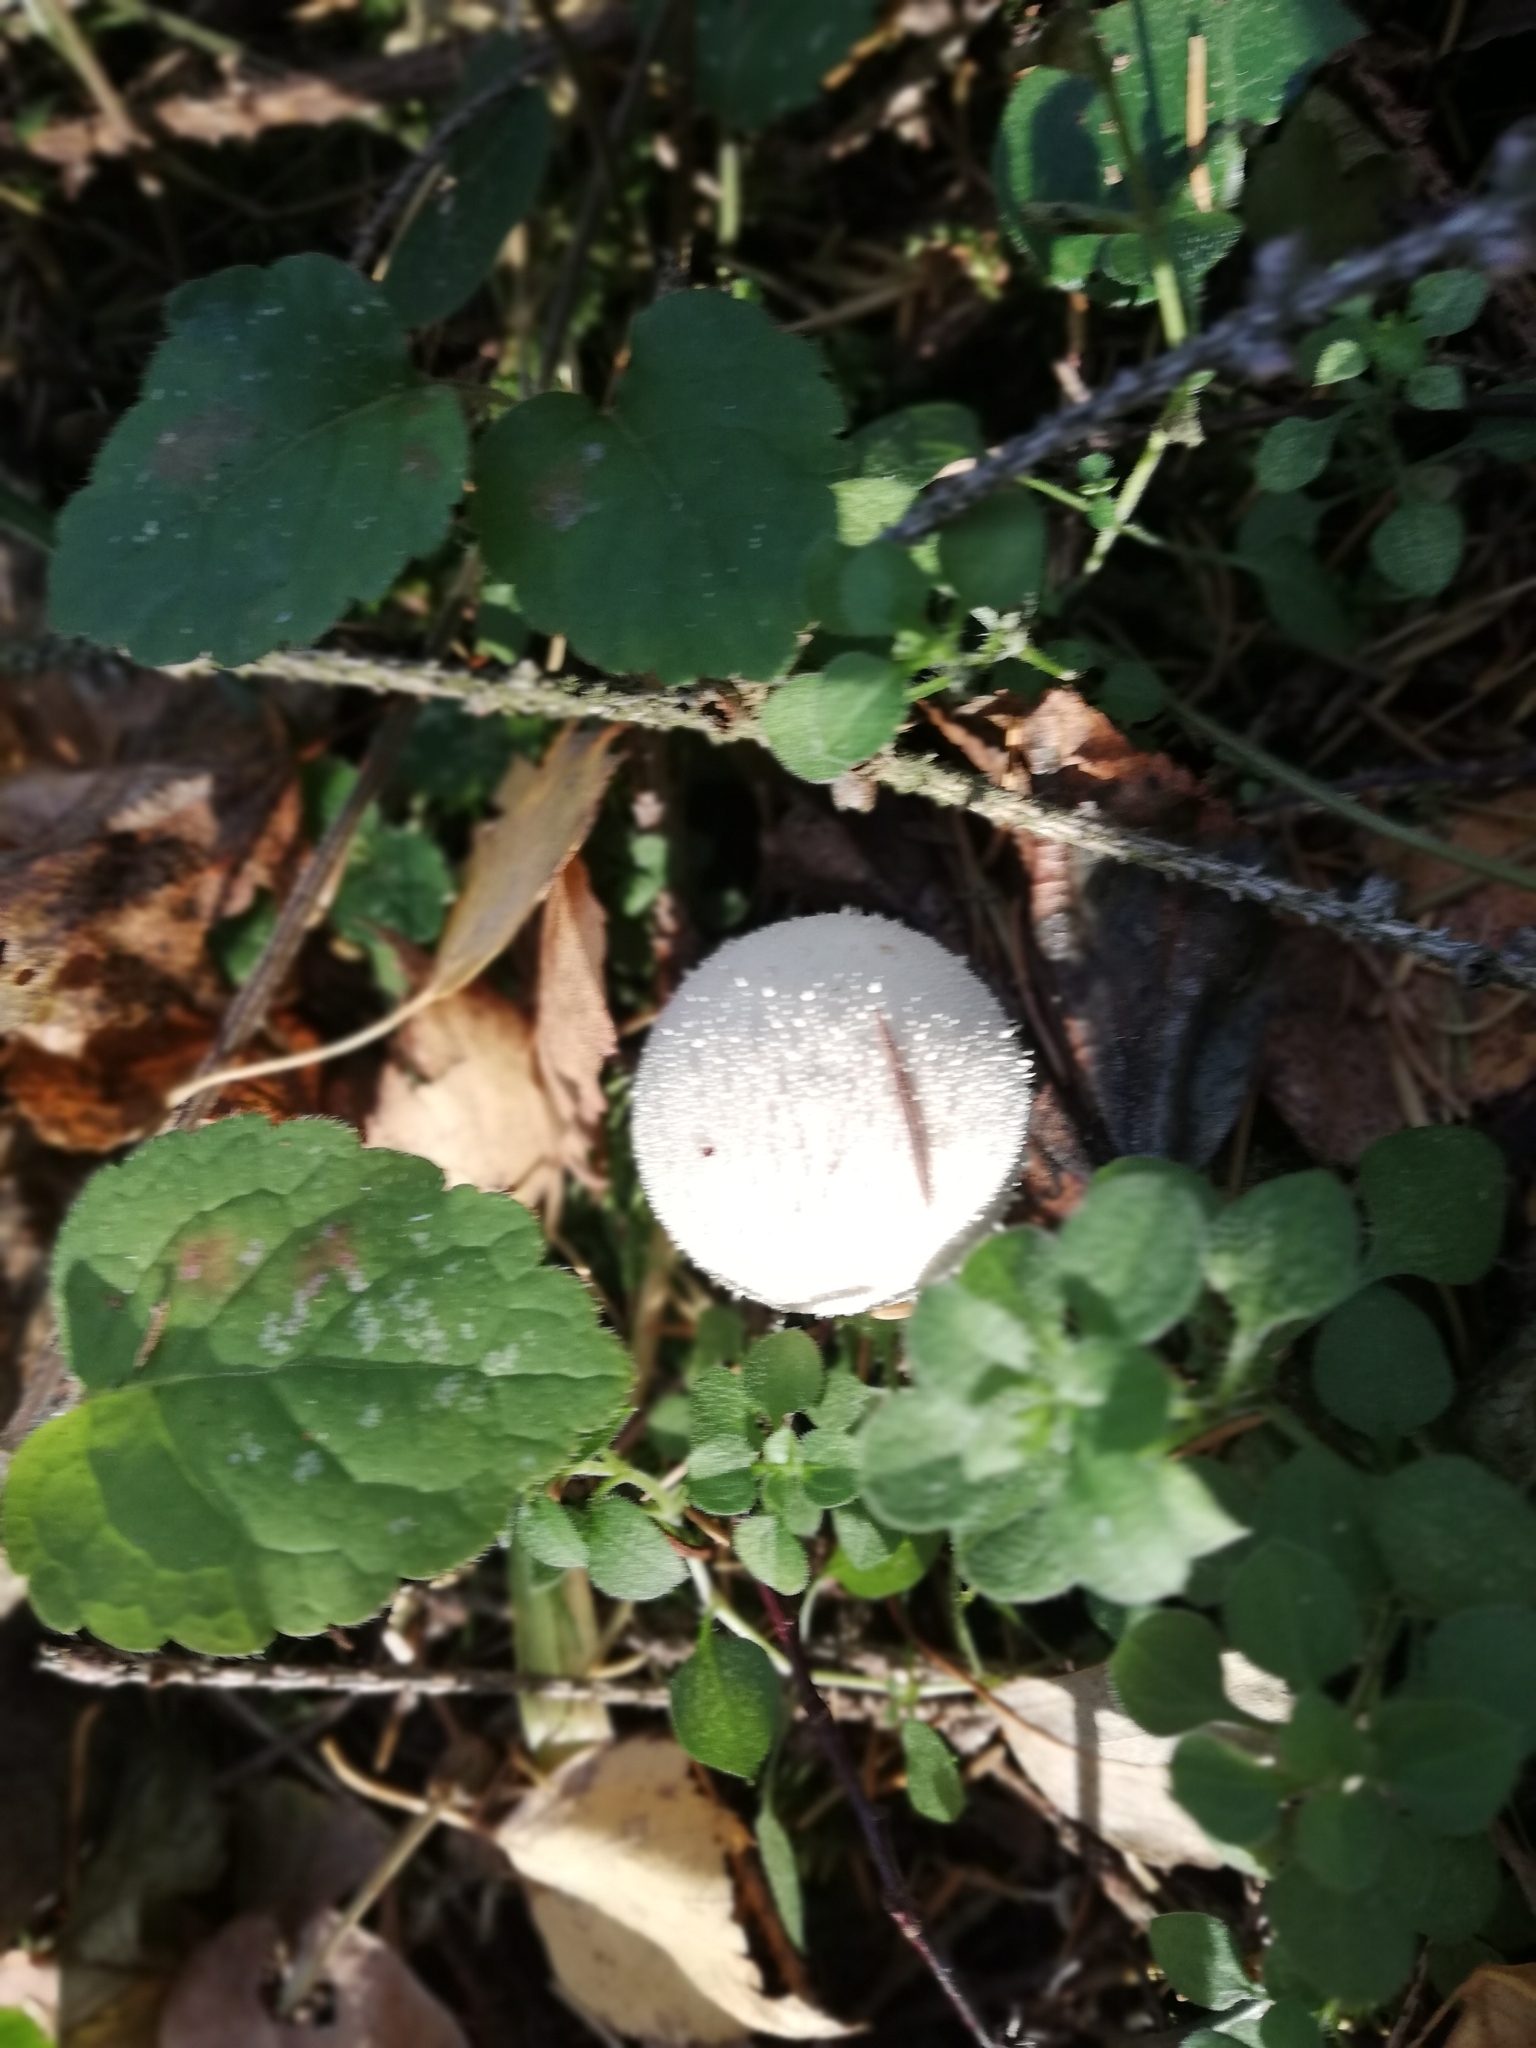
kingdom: Fungi
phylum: Basidiomycota
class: Agaricomycetes
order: Agaricales
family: Lycoperdaceae
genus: Lycoperdon
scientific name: Lycoperdon perlatum
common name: Common puffball
